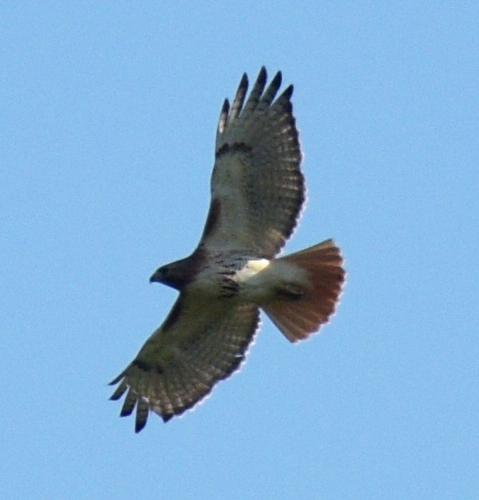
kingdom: Animalia
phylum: Chordata
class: Aves
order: Accipitriformes
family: Accipitridae
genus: Buteo
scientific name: Buteo jamaicensis
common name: Red-tailed hawk
